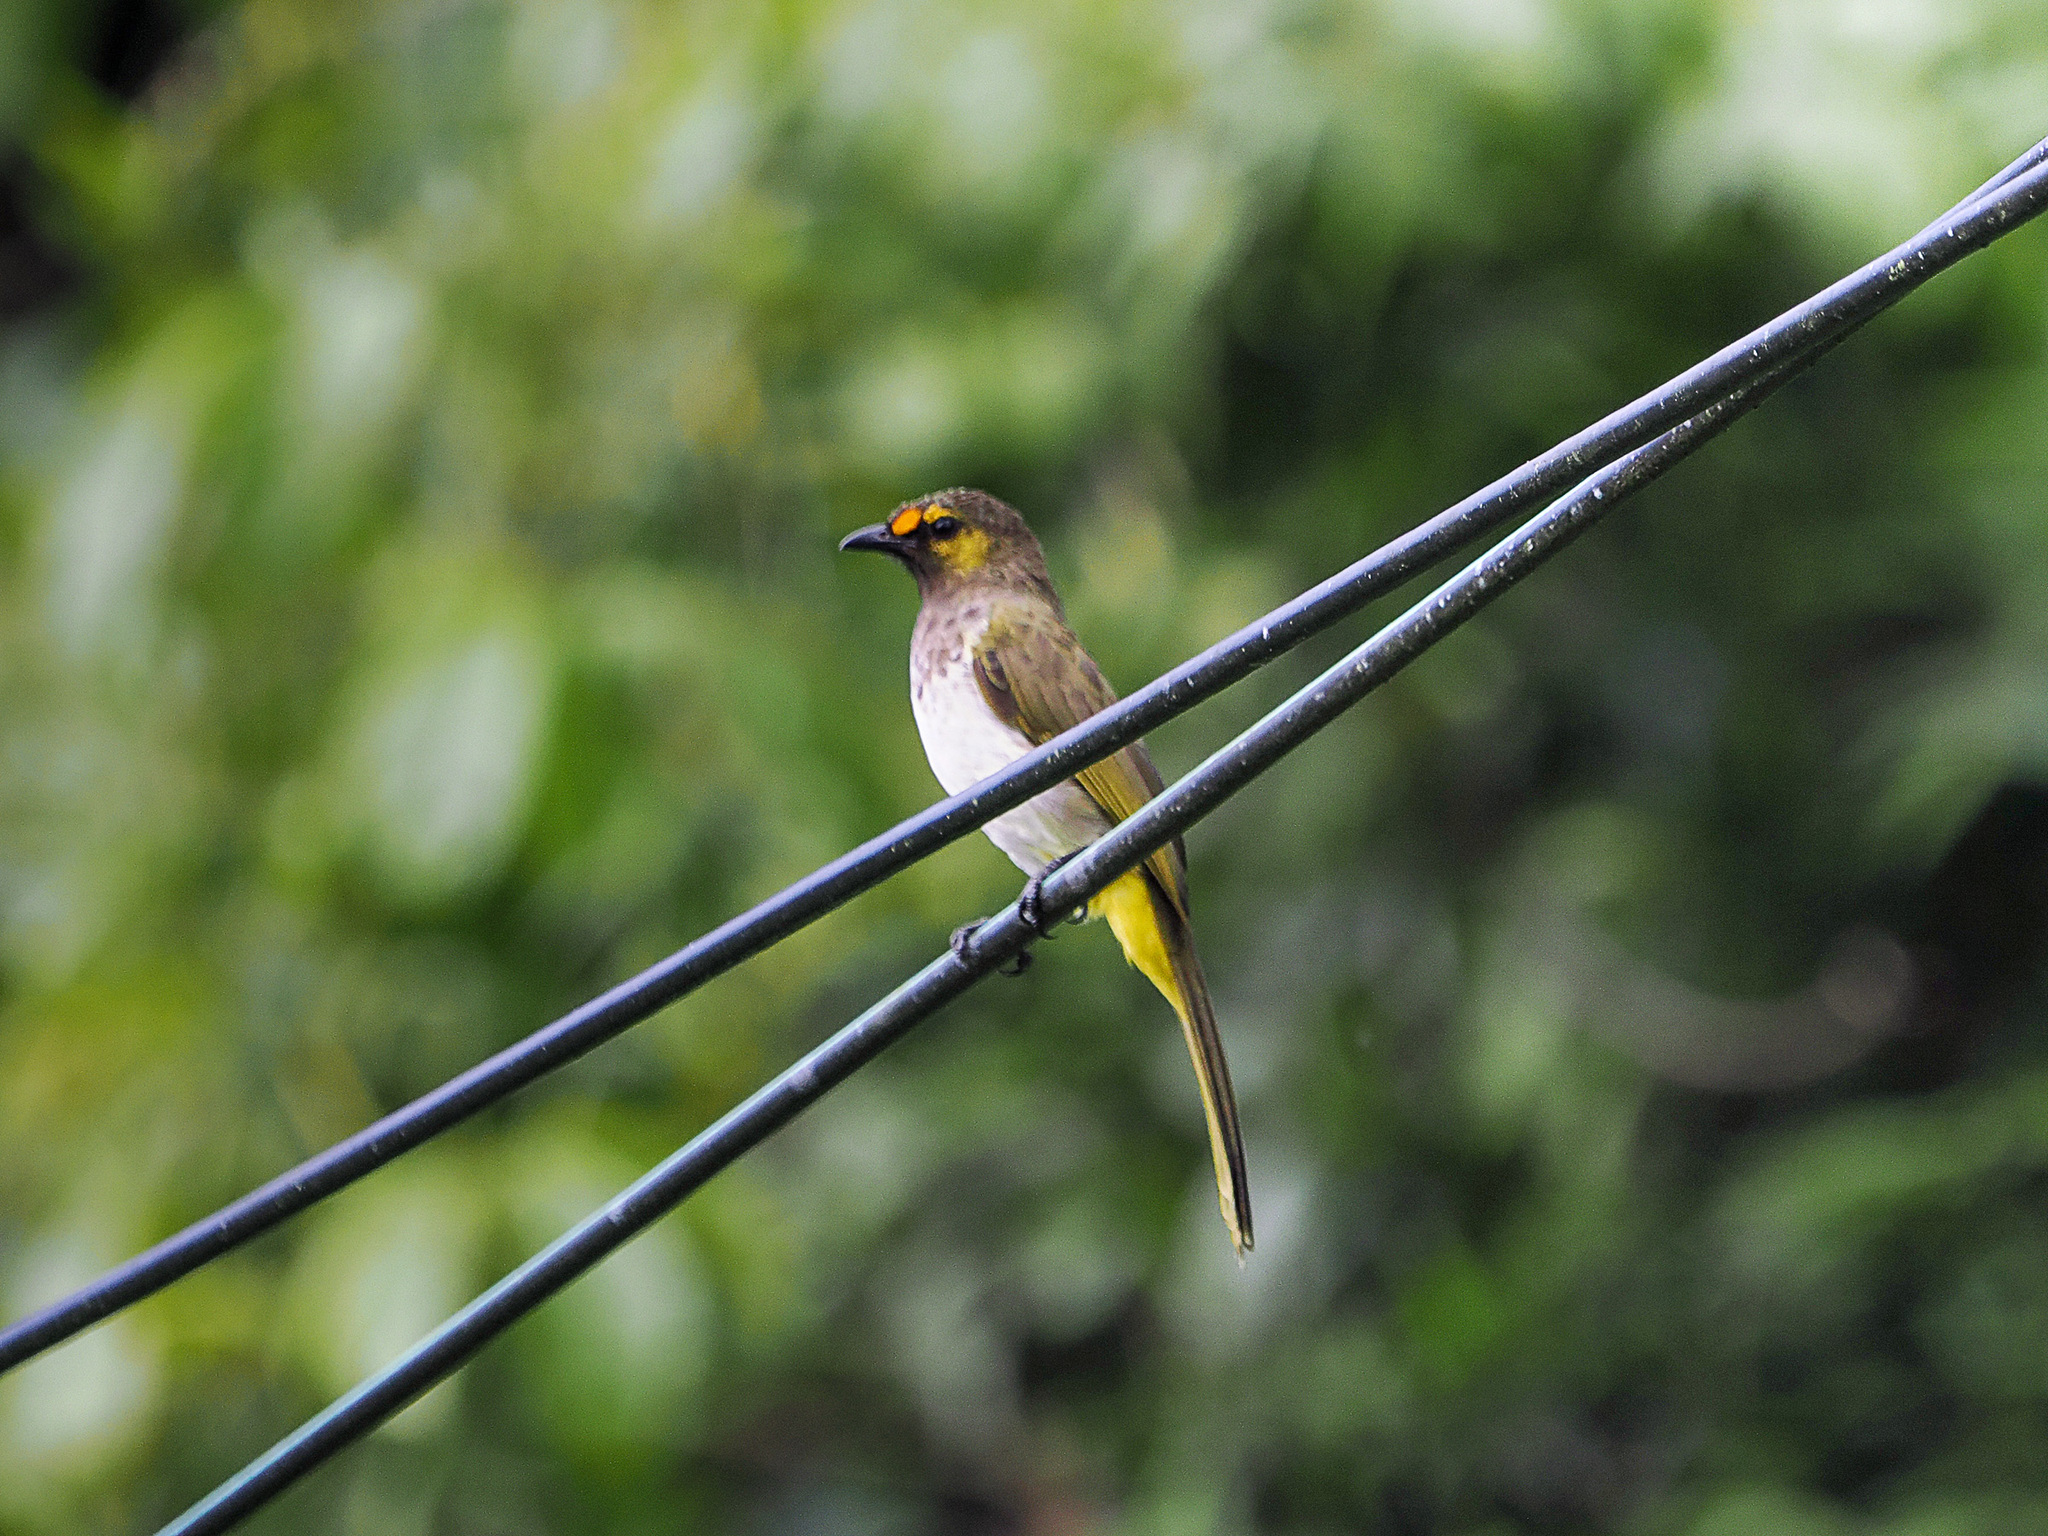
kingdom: Animalia
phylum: Chordata
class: Aves
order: Passeriformes
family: Pycnonotidae
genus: Pycnonotus
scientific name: Pycnonotus bimaculatus
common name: Orange-spotted bulbul
